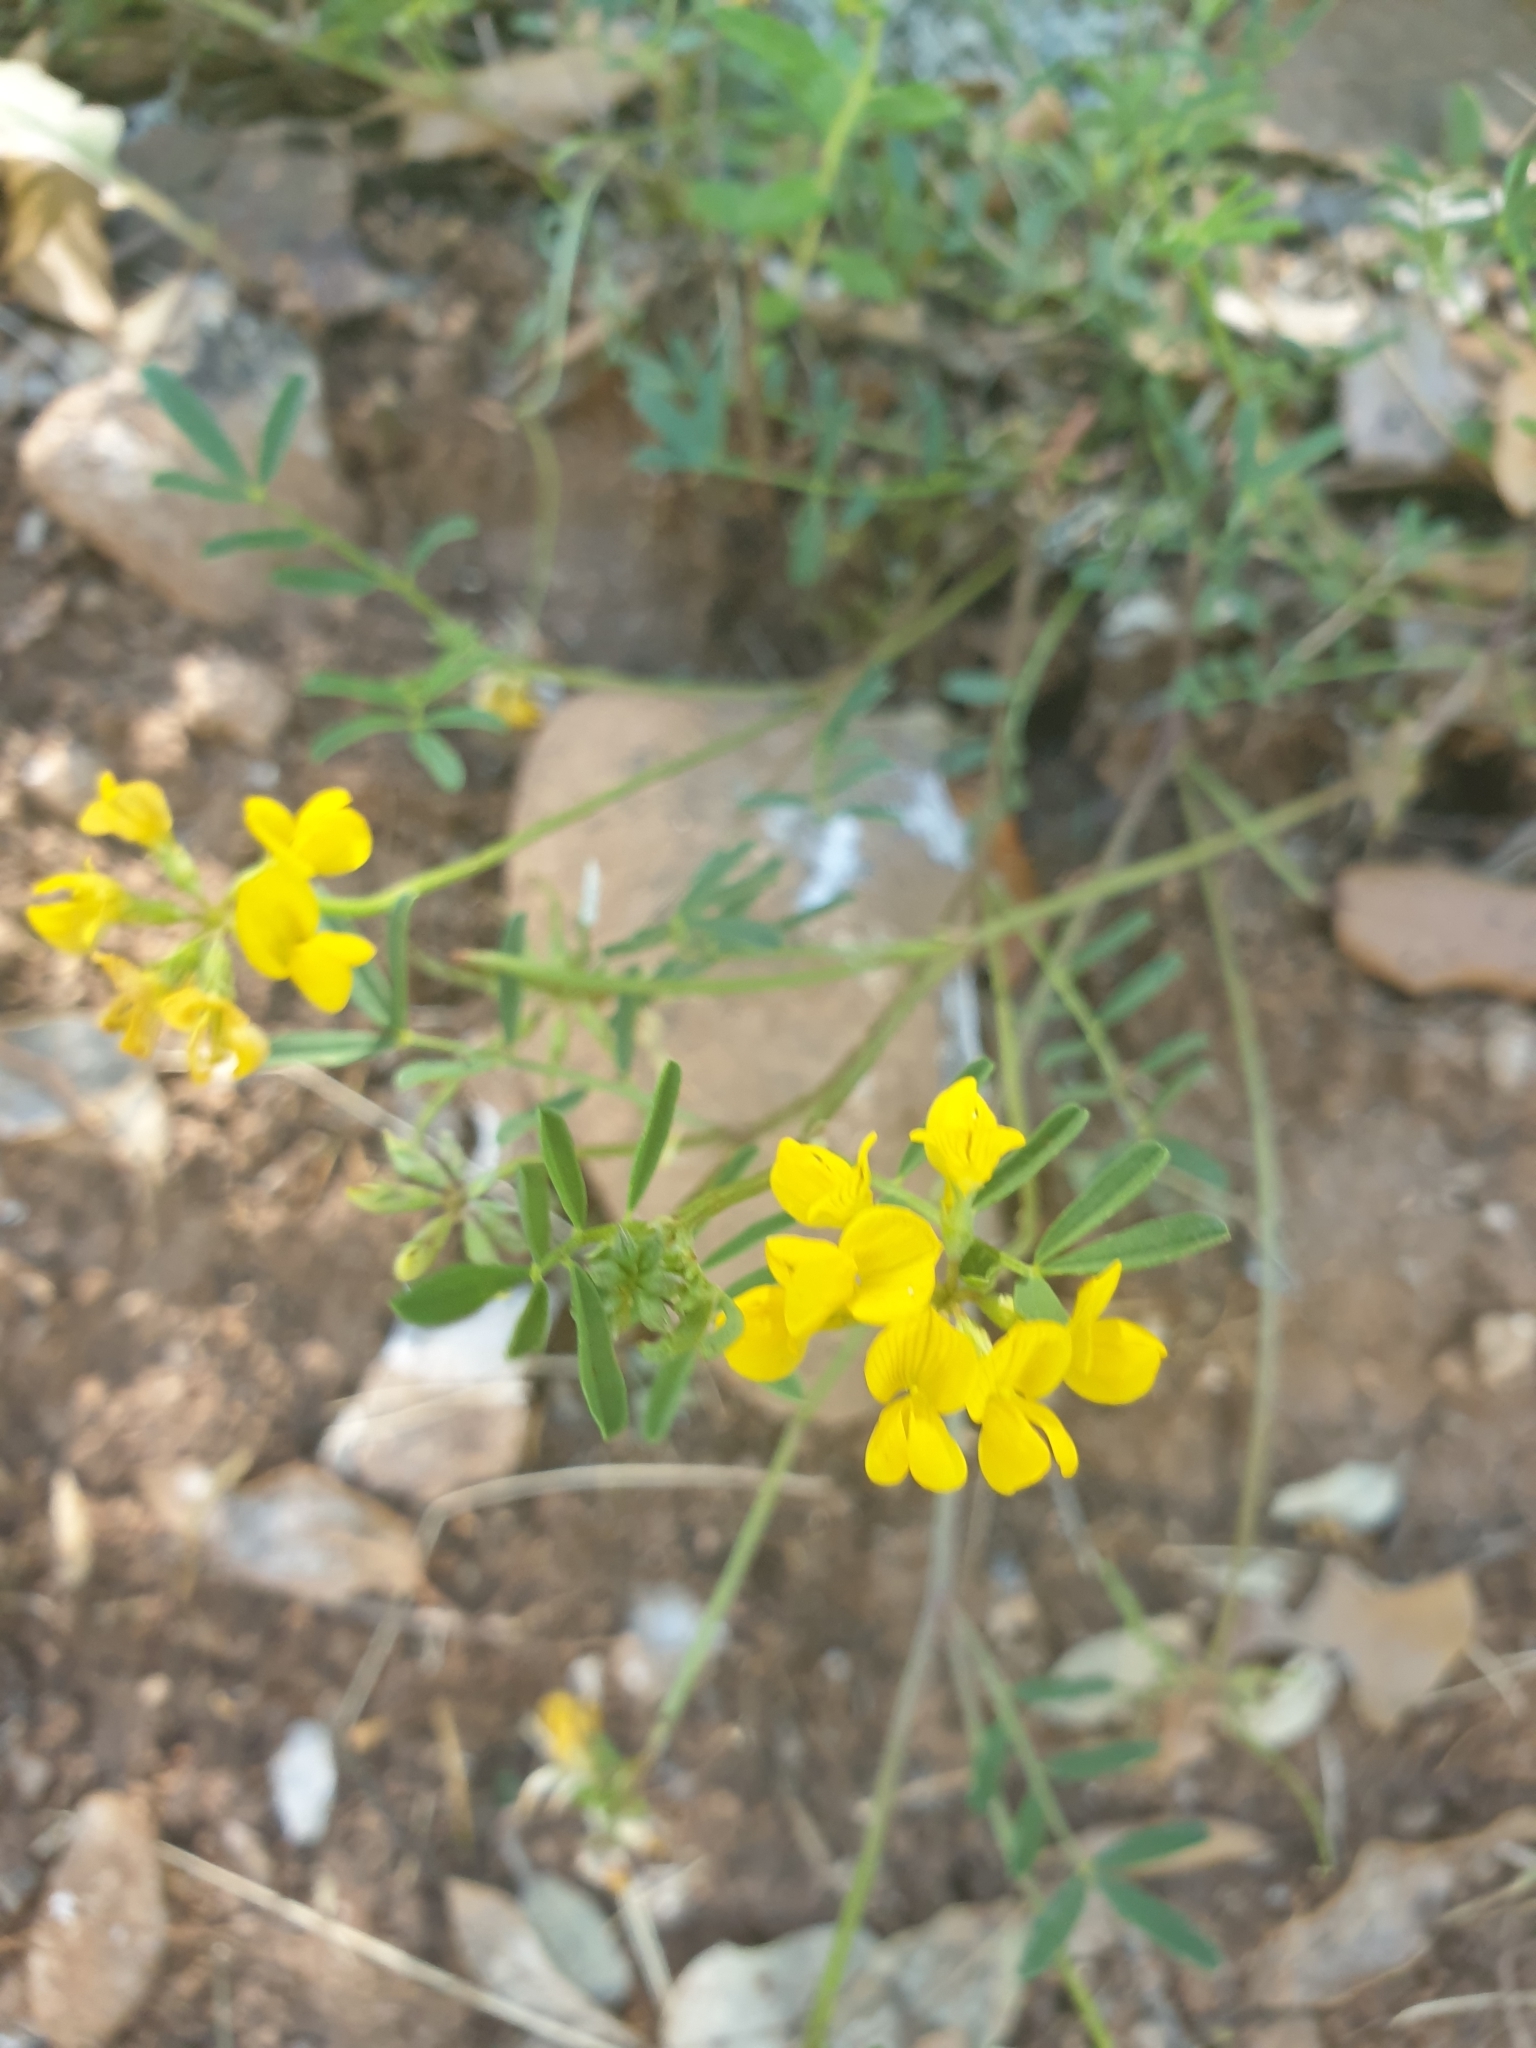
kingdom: Plantae
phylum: Tracheophyta
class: Magnoliopsida
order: Fabales
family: Fabaceae
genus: Hippocrepis
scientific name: Hippocrepis comosa
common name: Horseshoe vetch
